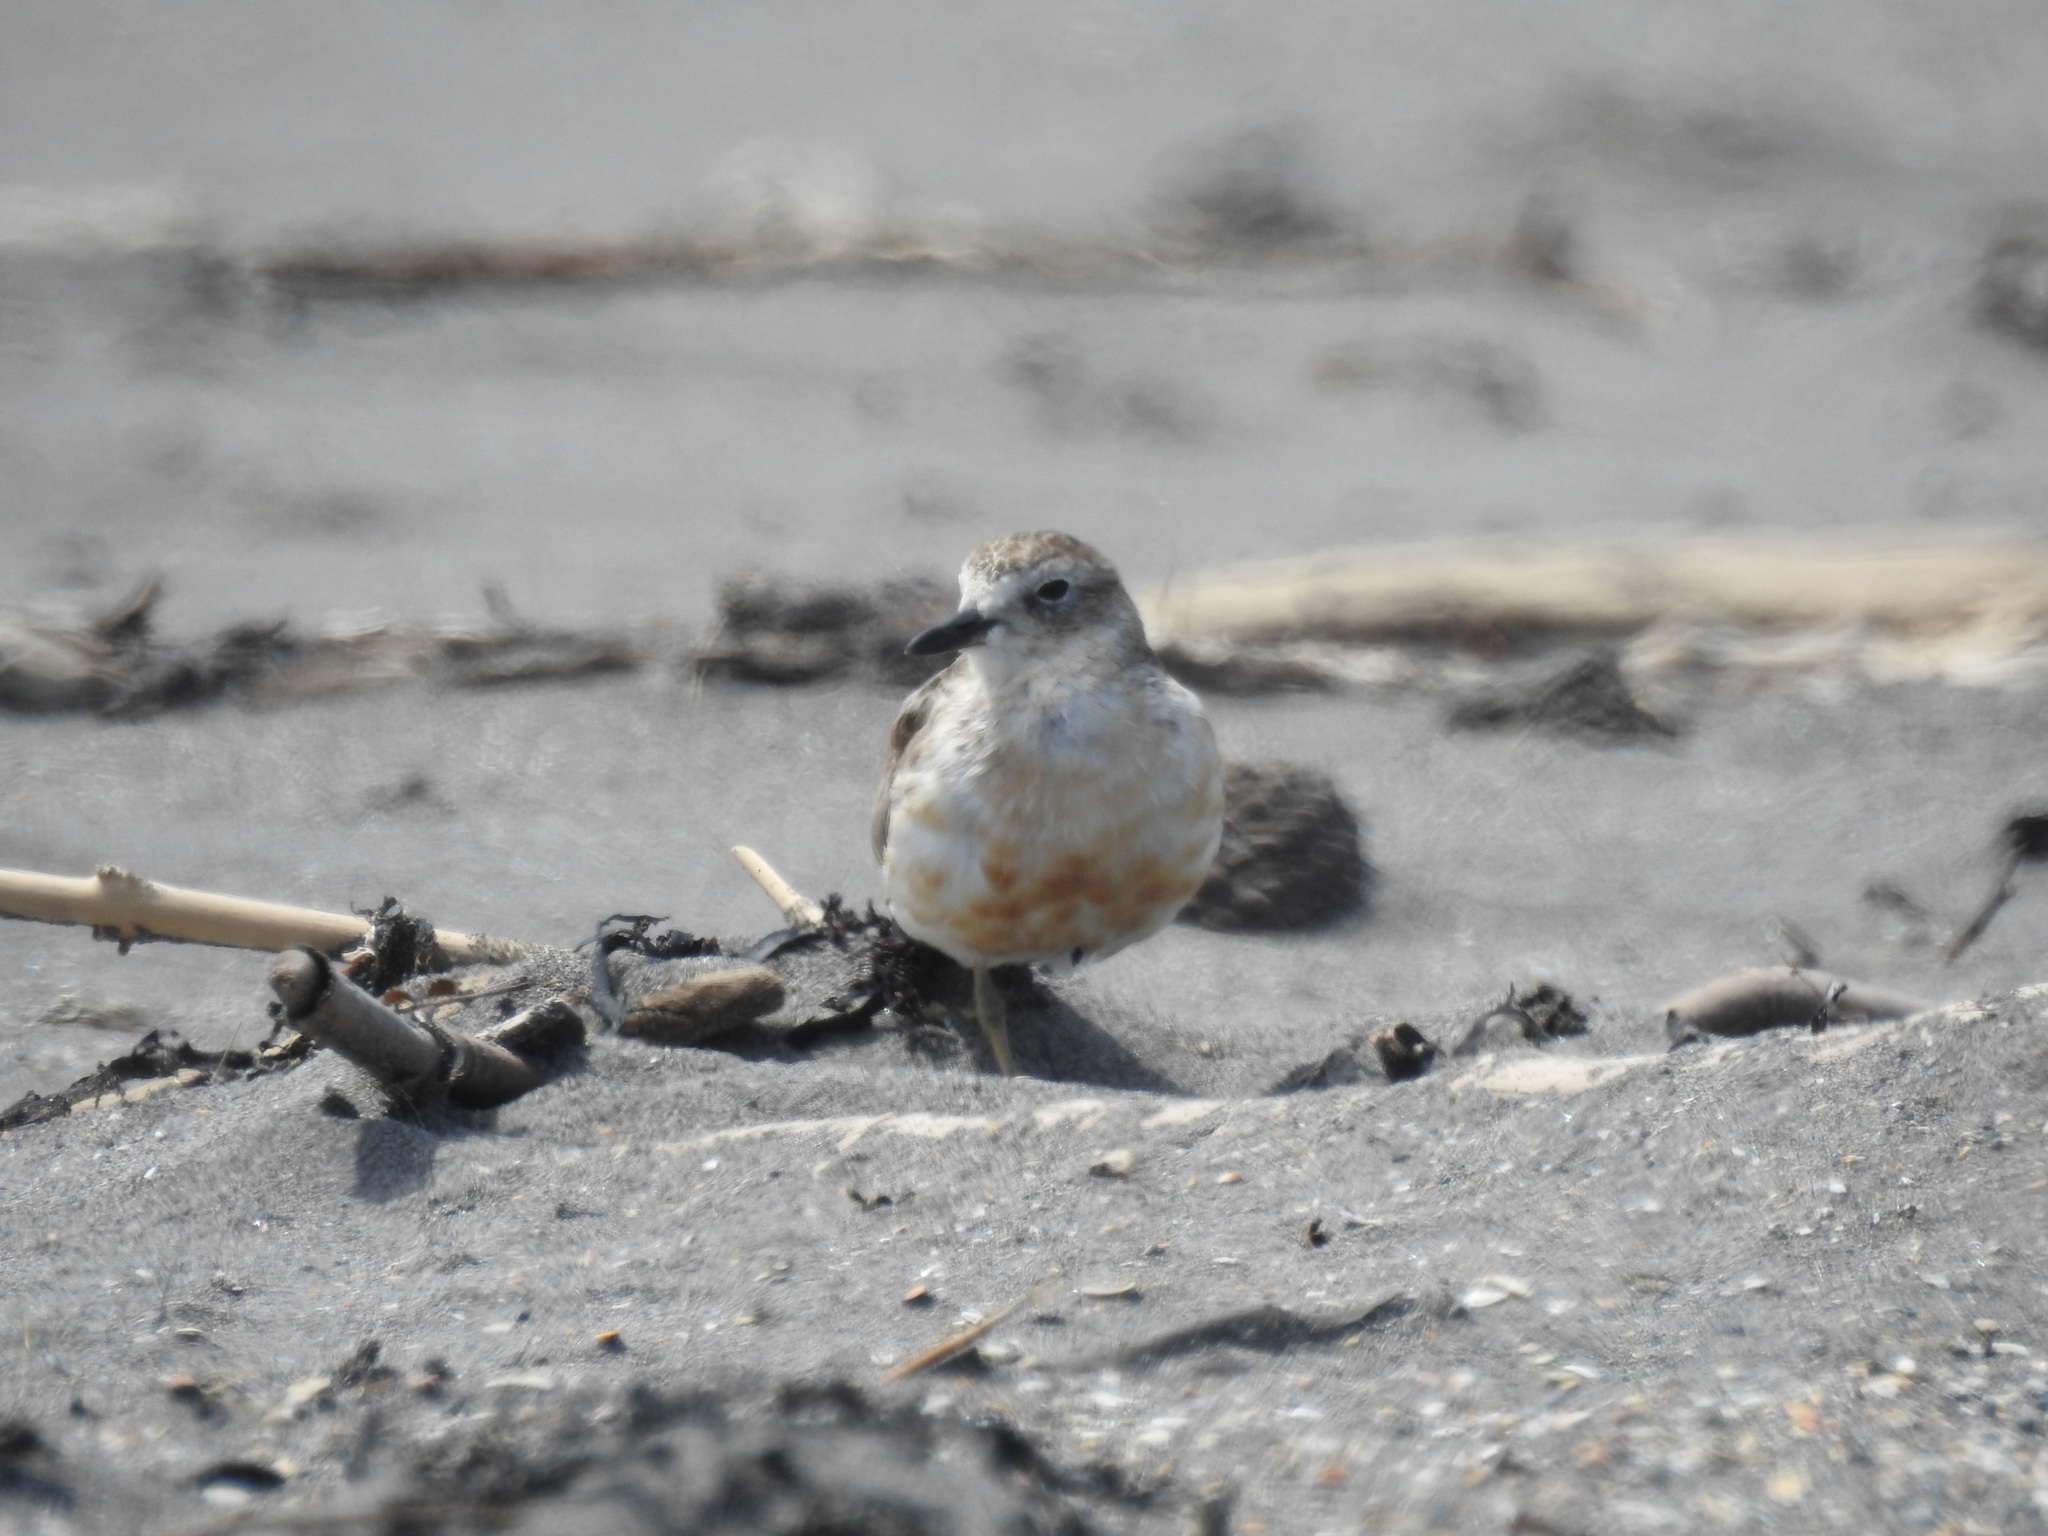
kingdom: Animalia
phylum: Chordata
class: Aves
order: Charadriiformes
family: Charadriidae
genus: Anarhynchus
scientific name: Anarhynchus
